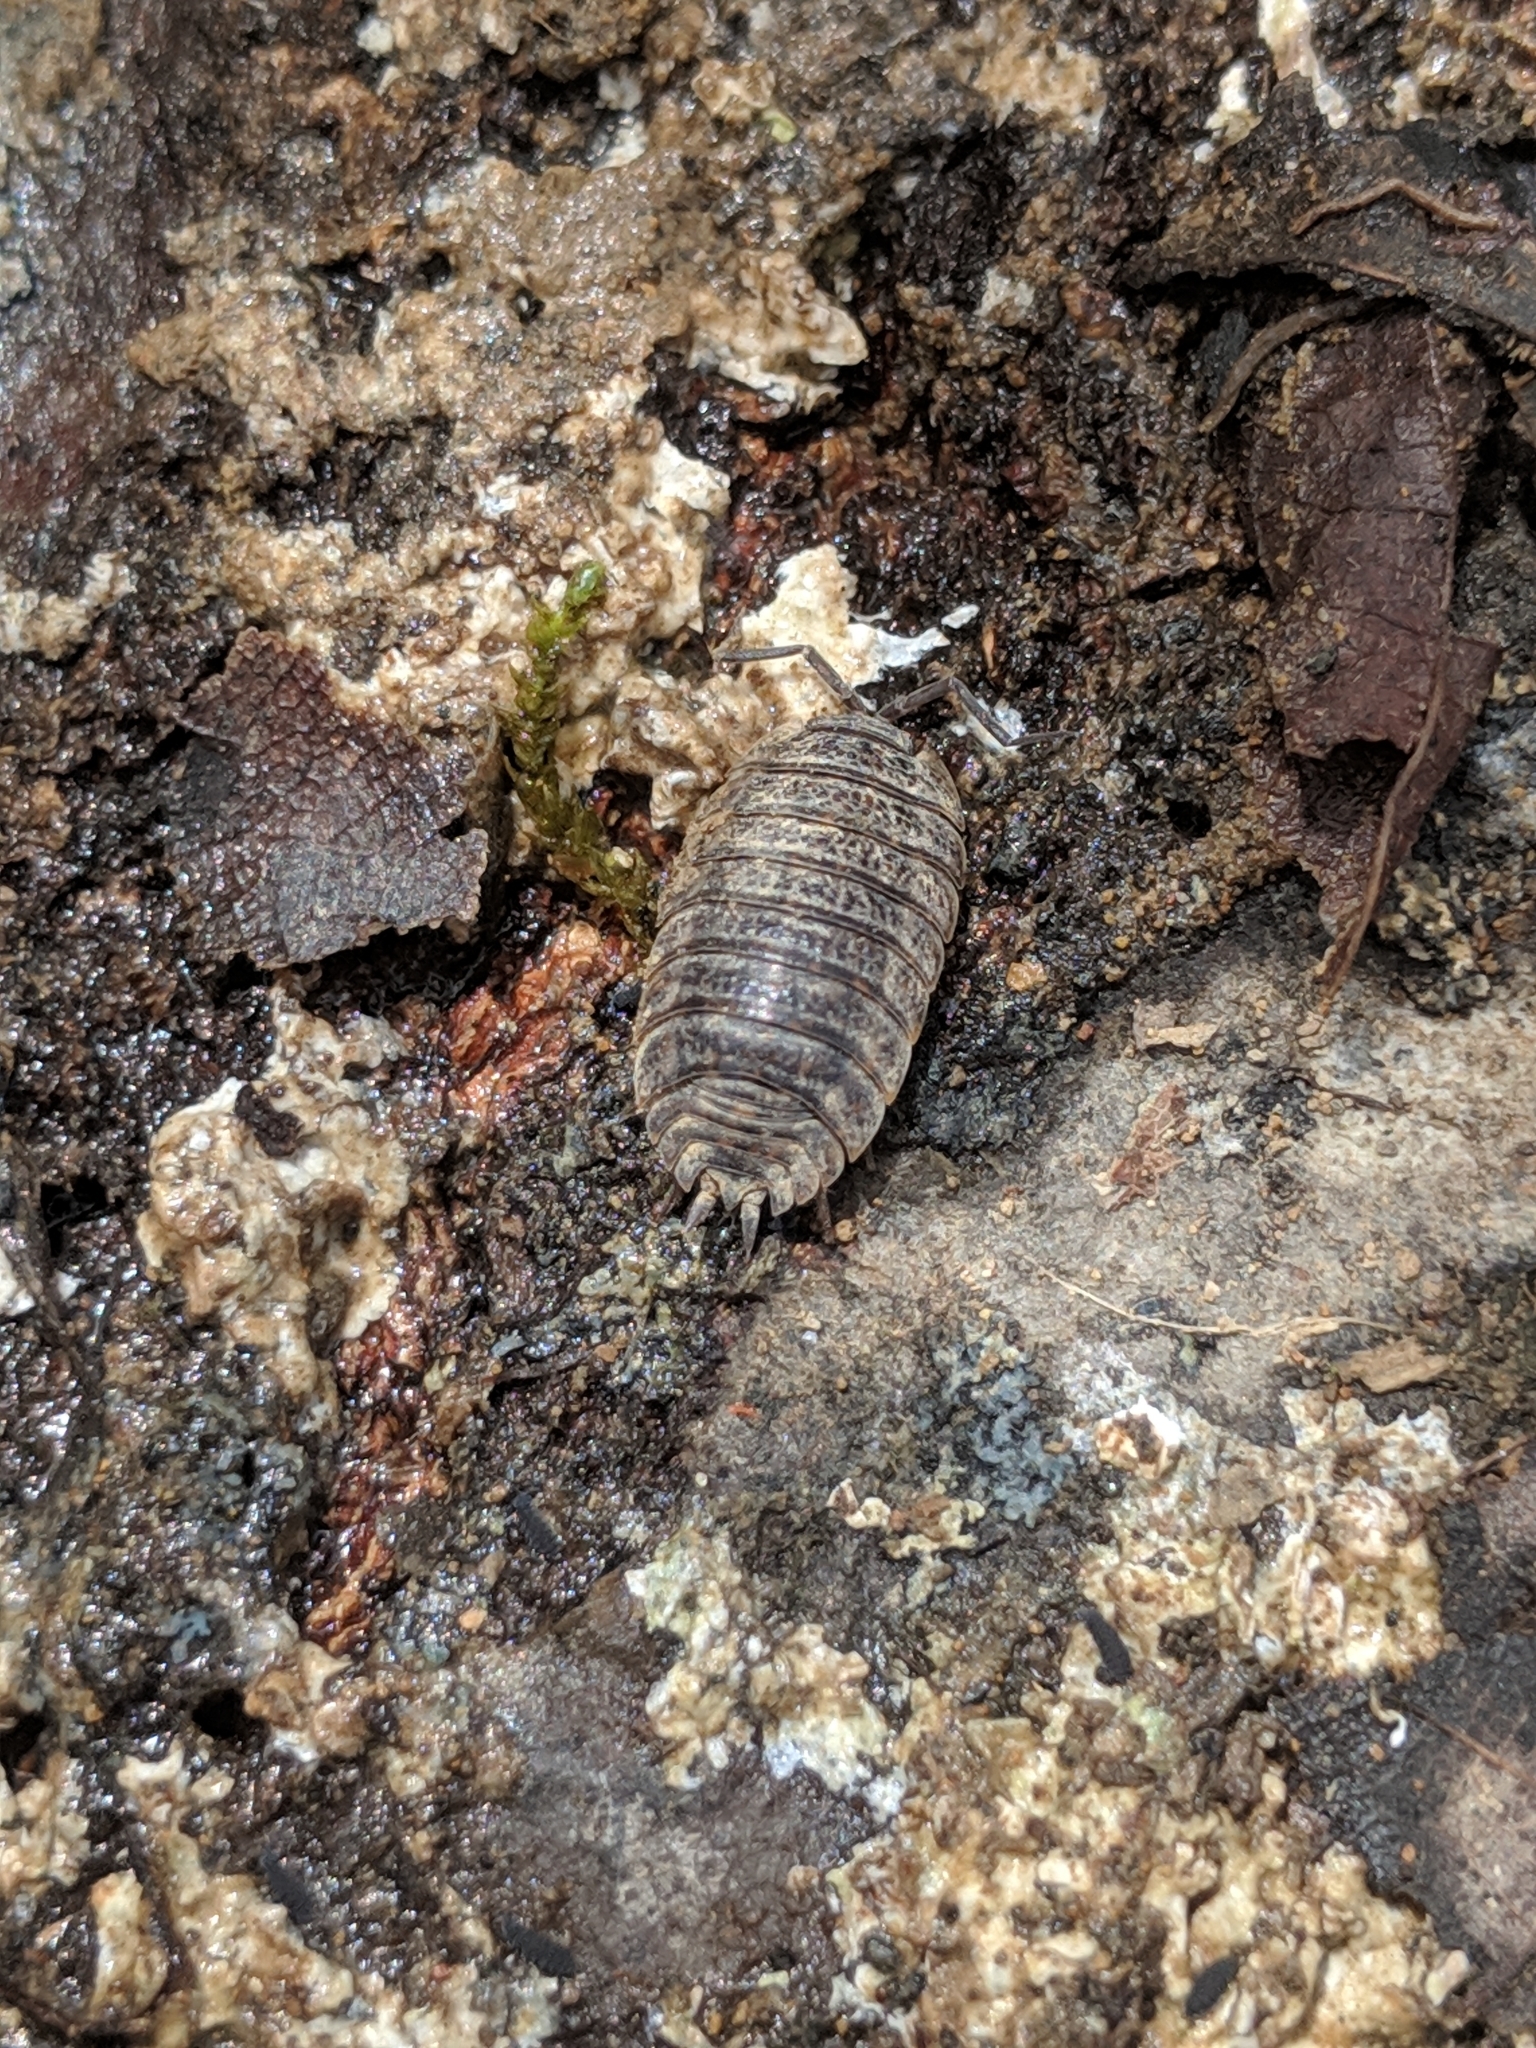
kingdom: Animalia
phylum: Arthropoda
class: Malacostraca
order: Isopoda
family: Trachelipodidae
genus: Trachelipus
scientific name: Trachelipus rathkii
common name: Isopod
